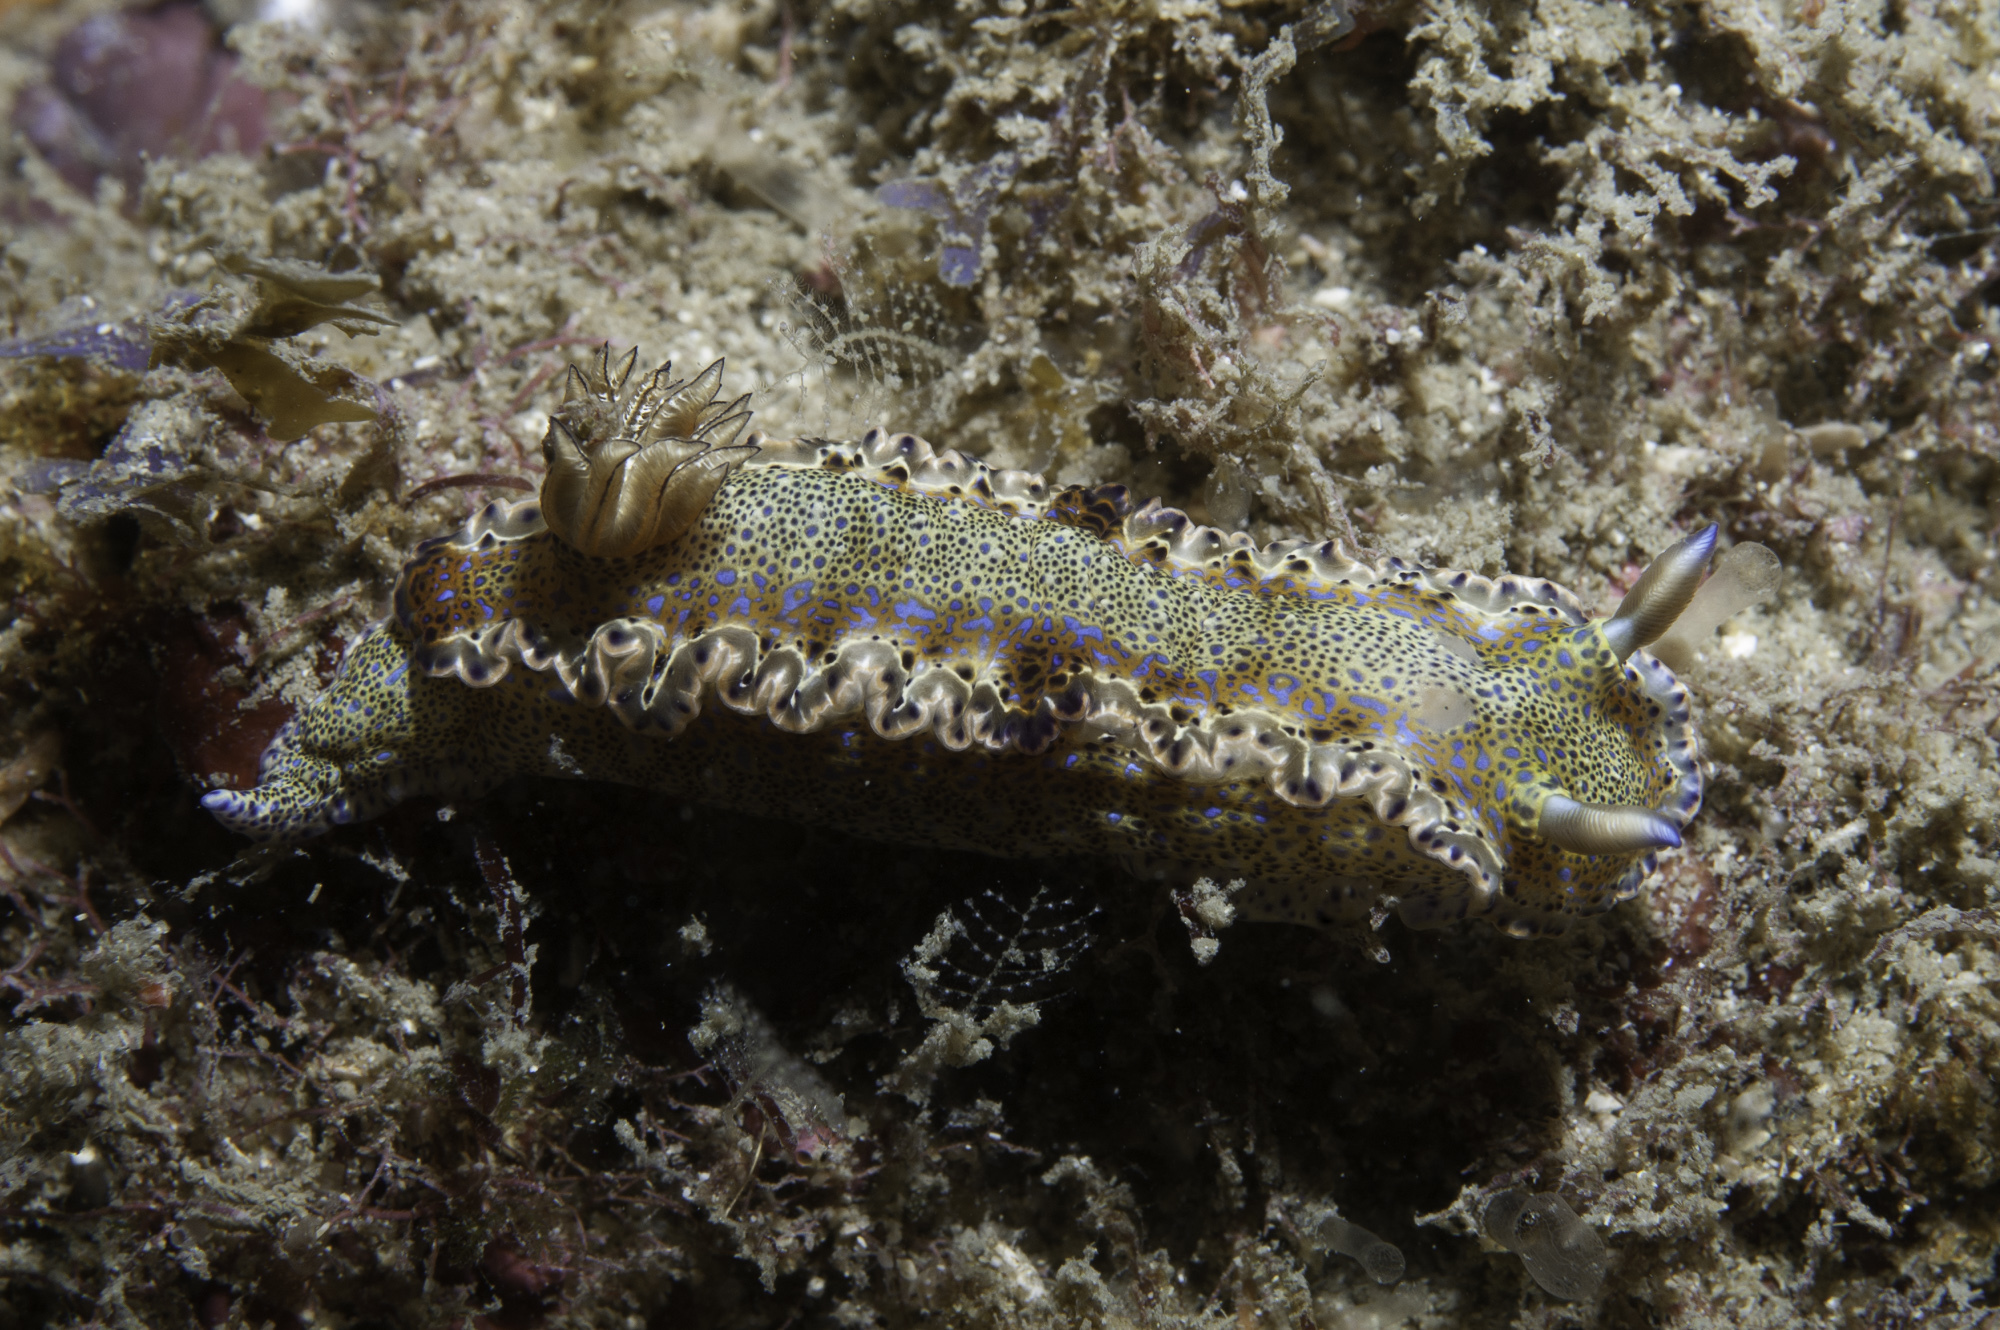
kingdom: Animalia
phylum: Mollusca
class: Gastropoda
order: Nudibranchia
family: Chromodorididae
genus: Felimare
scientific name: Felimare marci
